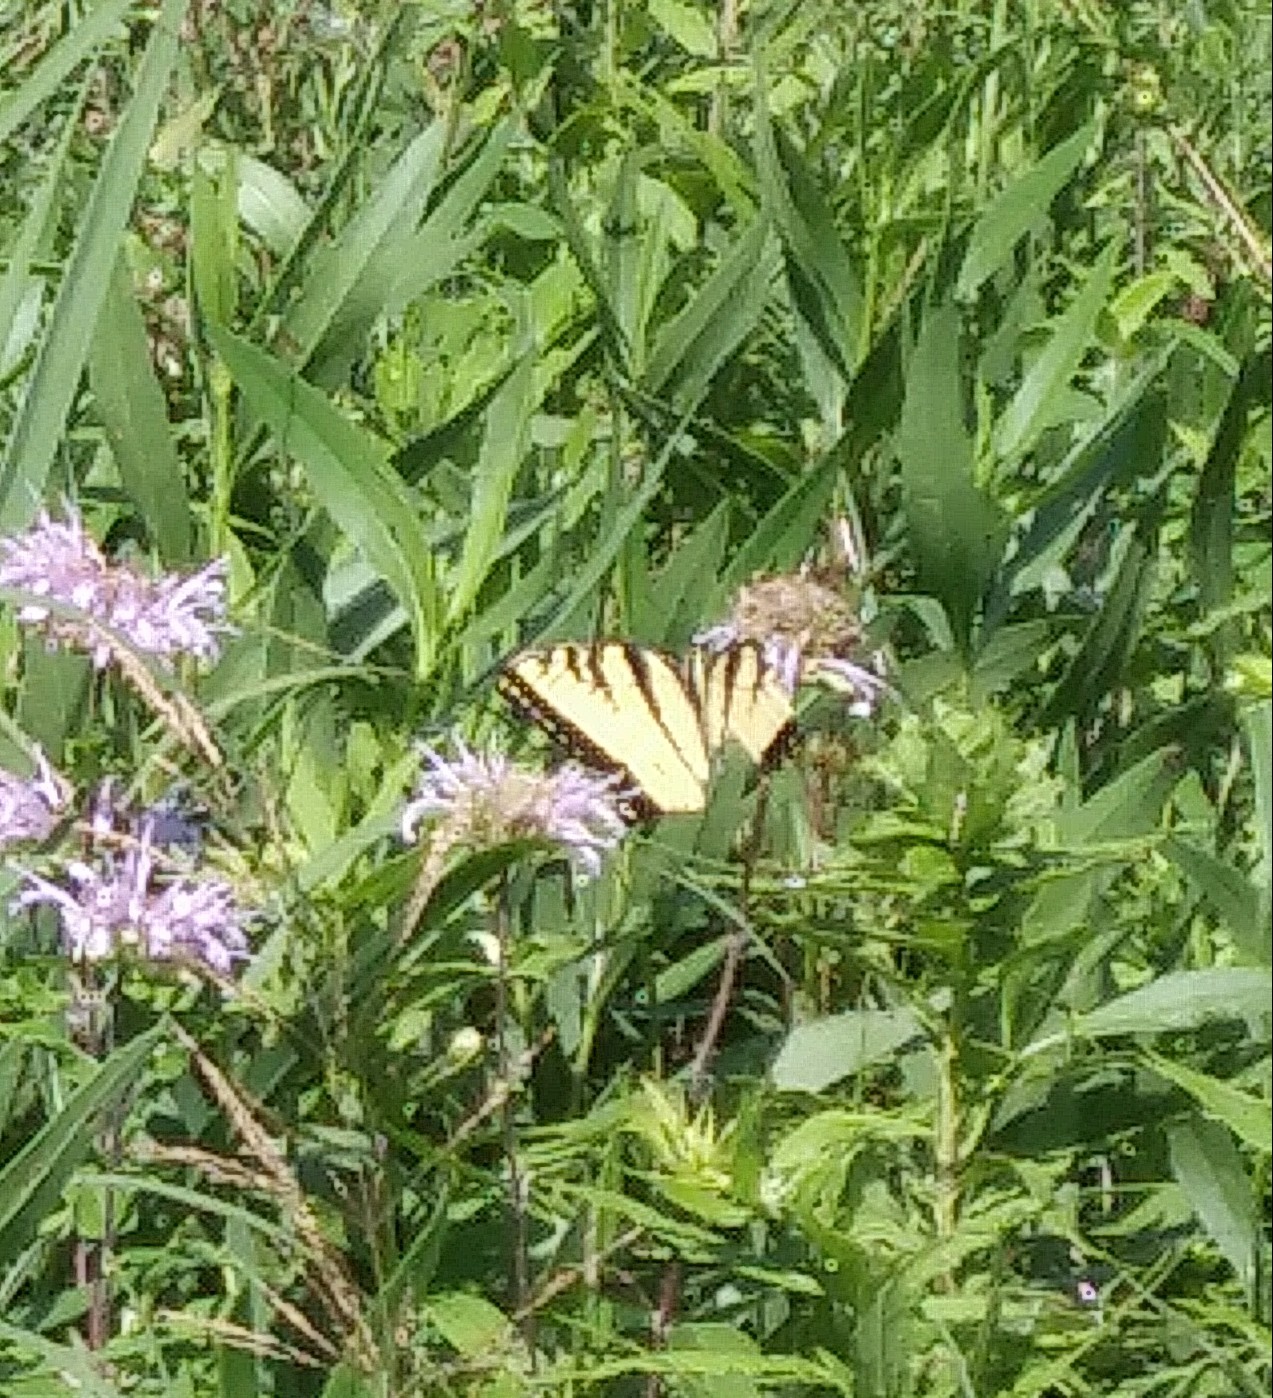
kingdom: Animalia
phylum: Arthropoda
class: Insecta
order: Lepidoptera
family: Papilionidae
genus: Papilio
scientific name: Papilio glaucus
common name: Tiger swallowtail
